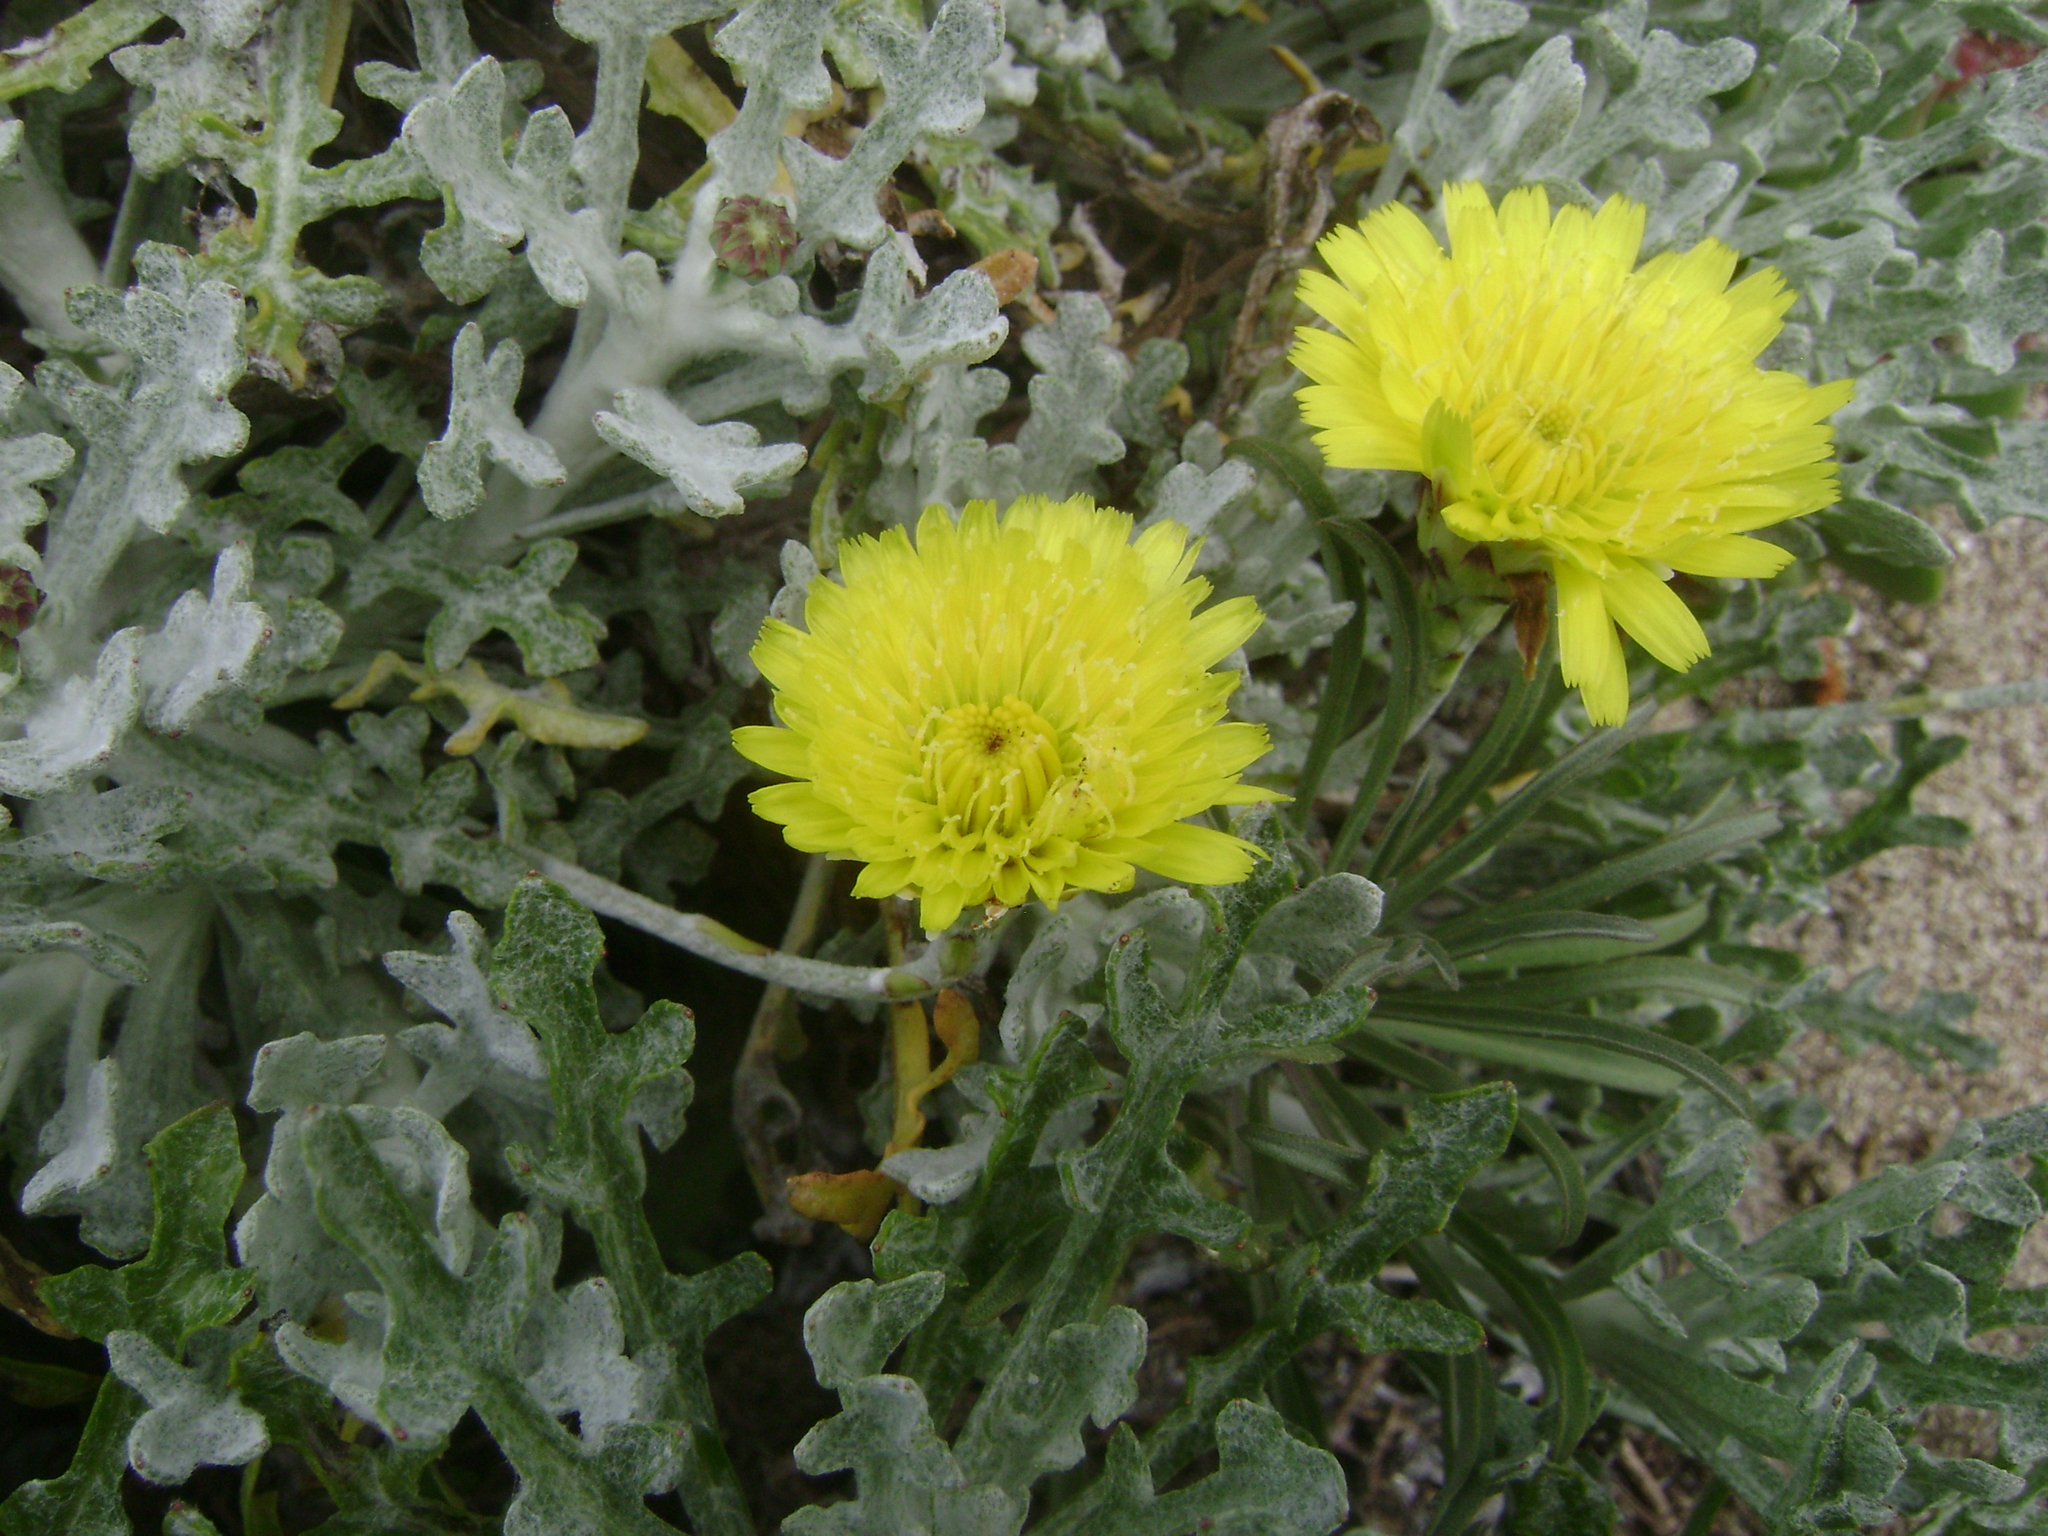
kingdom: Plantae
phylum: Tracheophyta
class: Magnoliopsida
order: Asterales
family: Asteraceae
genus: Malacothrix
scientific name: Malacothrix incana
